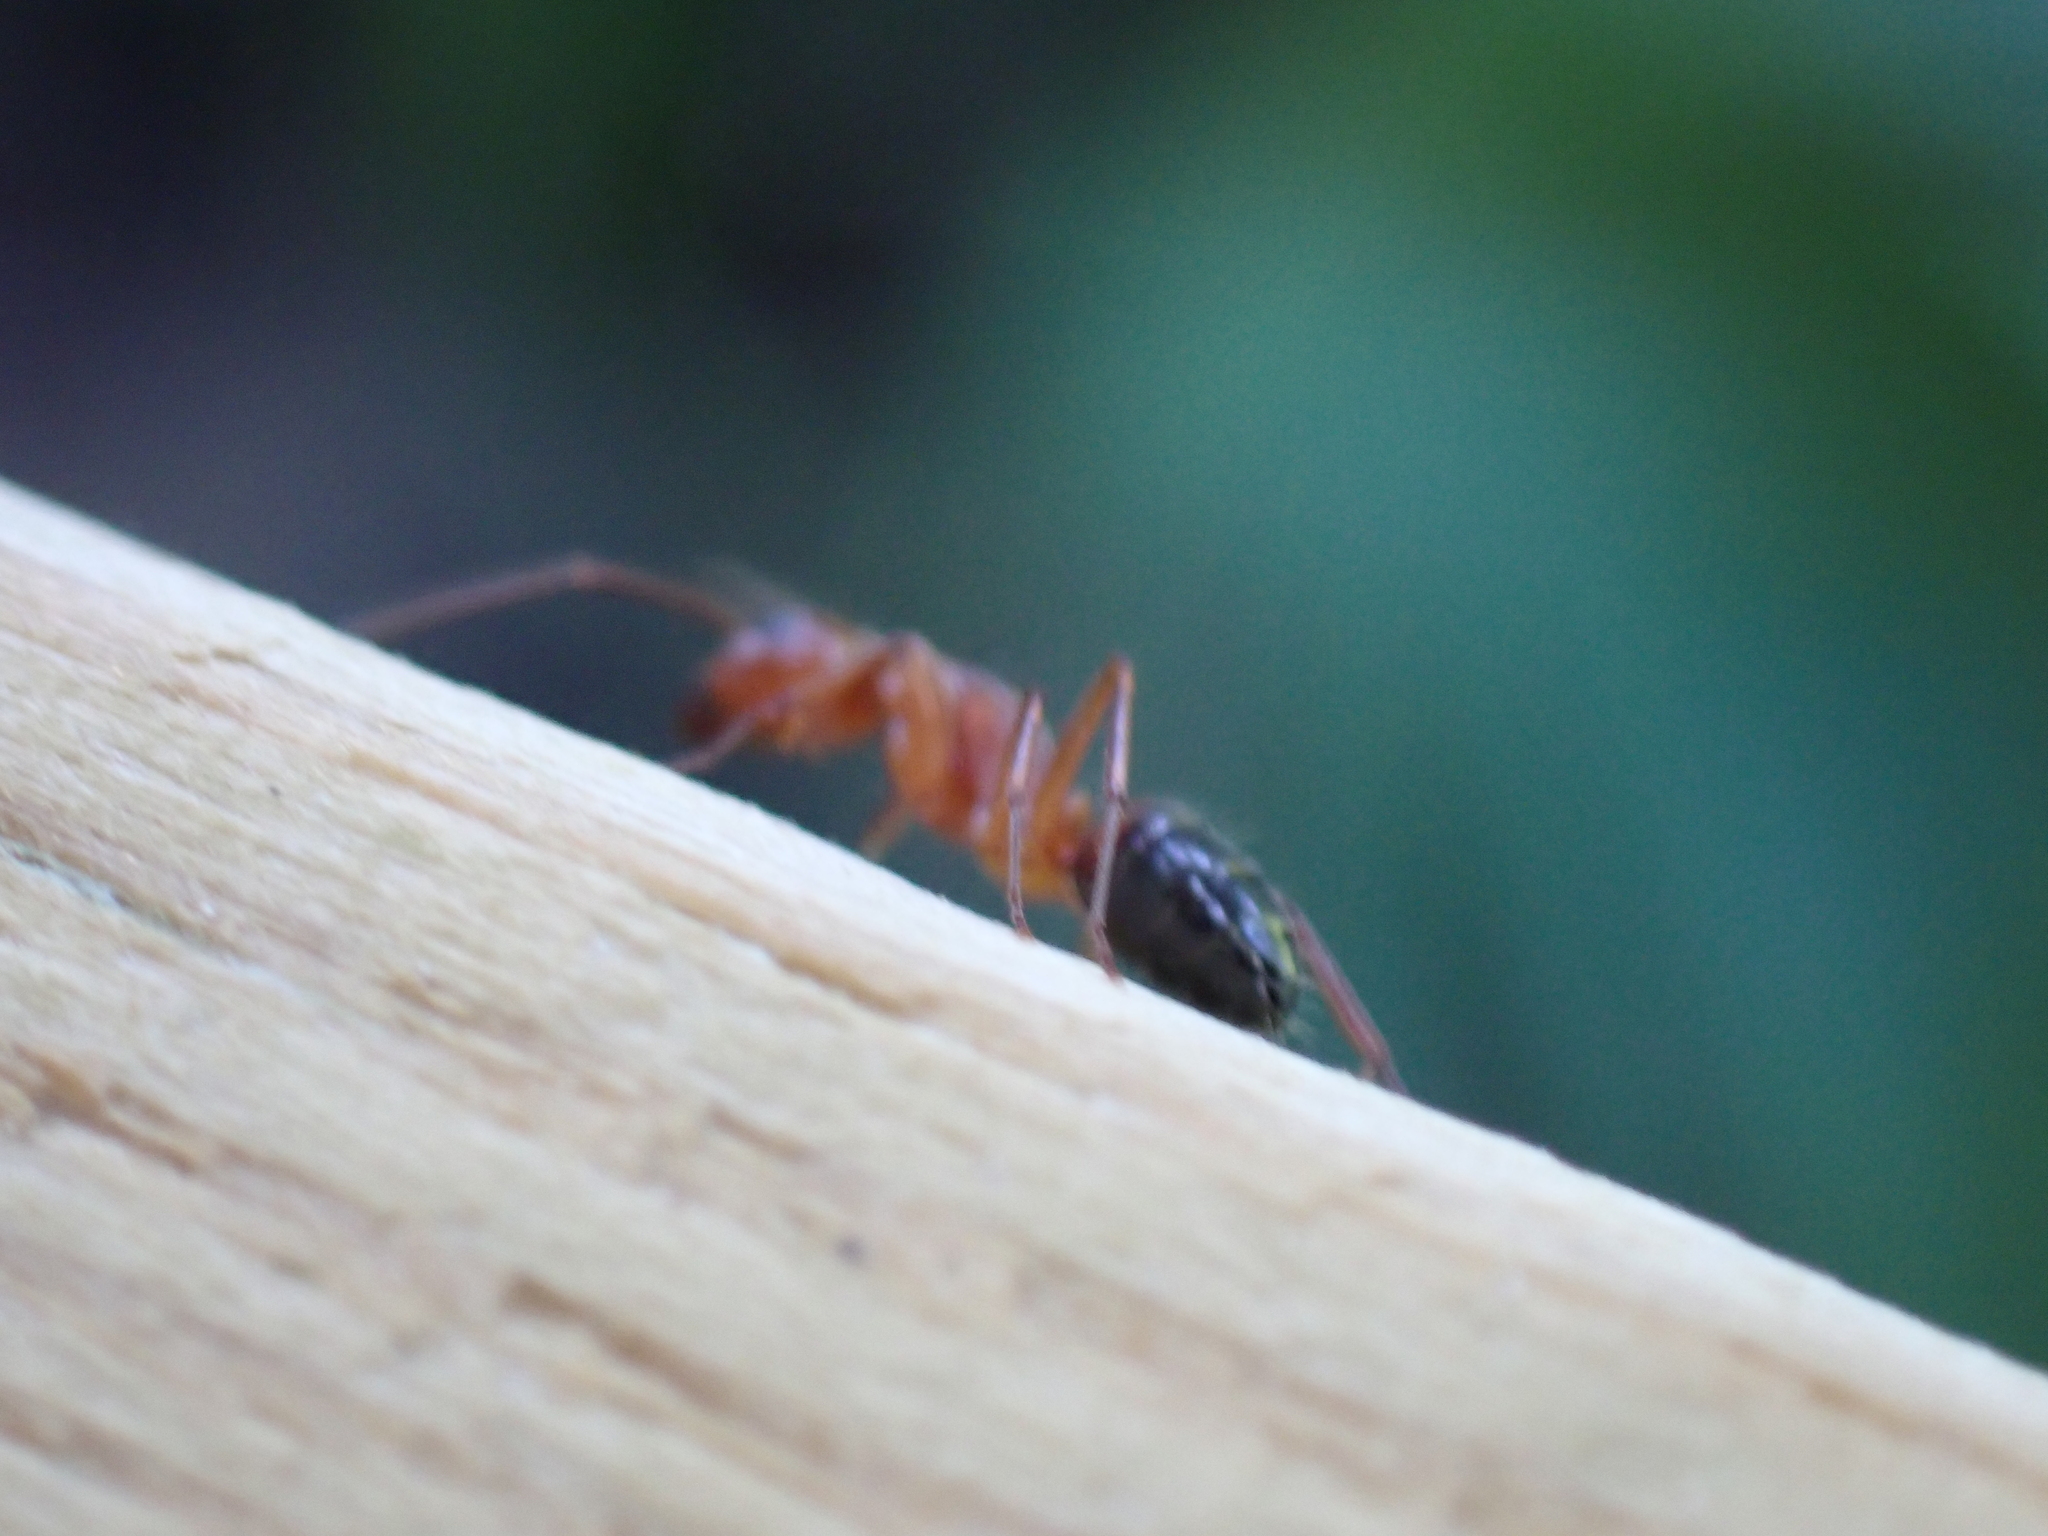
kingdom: Animalia
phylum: Arthropoda
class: Insecta
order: Hymenoptera
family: Formicidae
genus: Camponotus
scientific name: Camponotus snellingi
